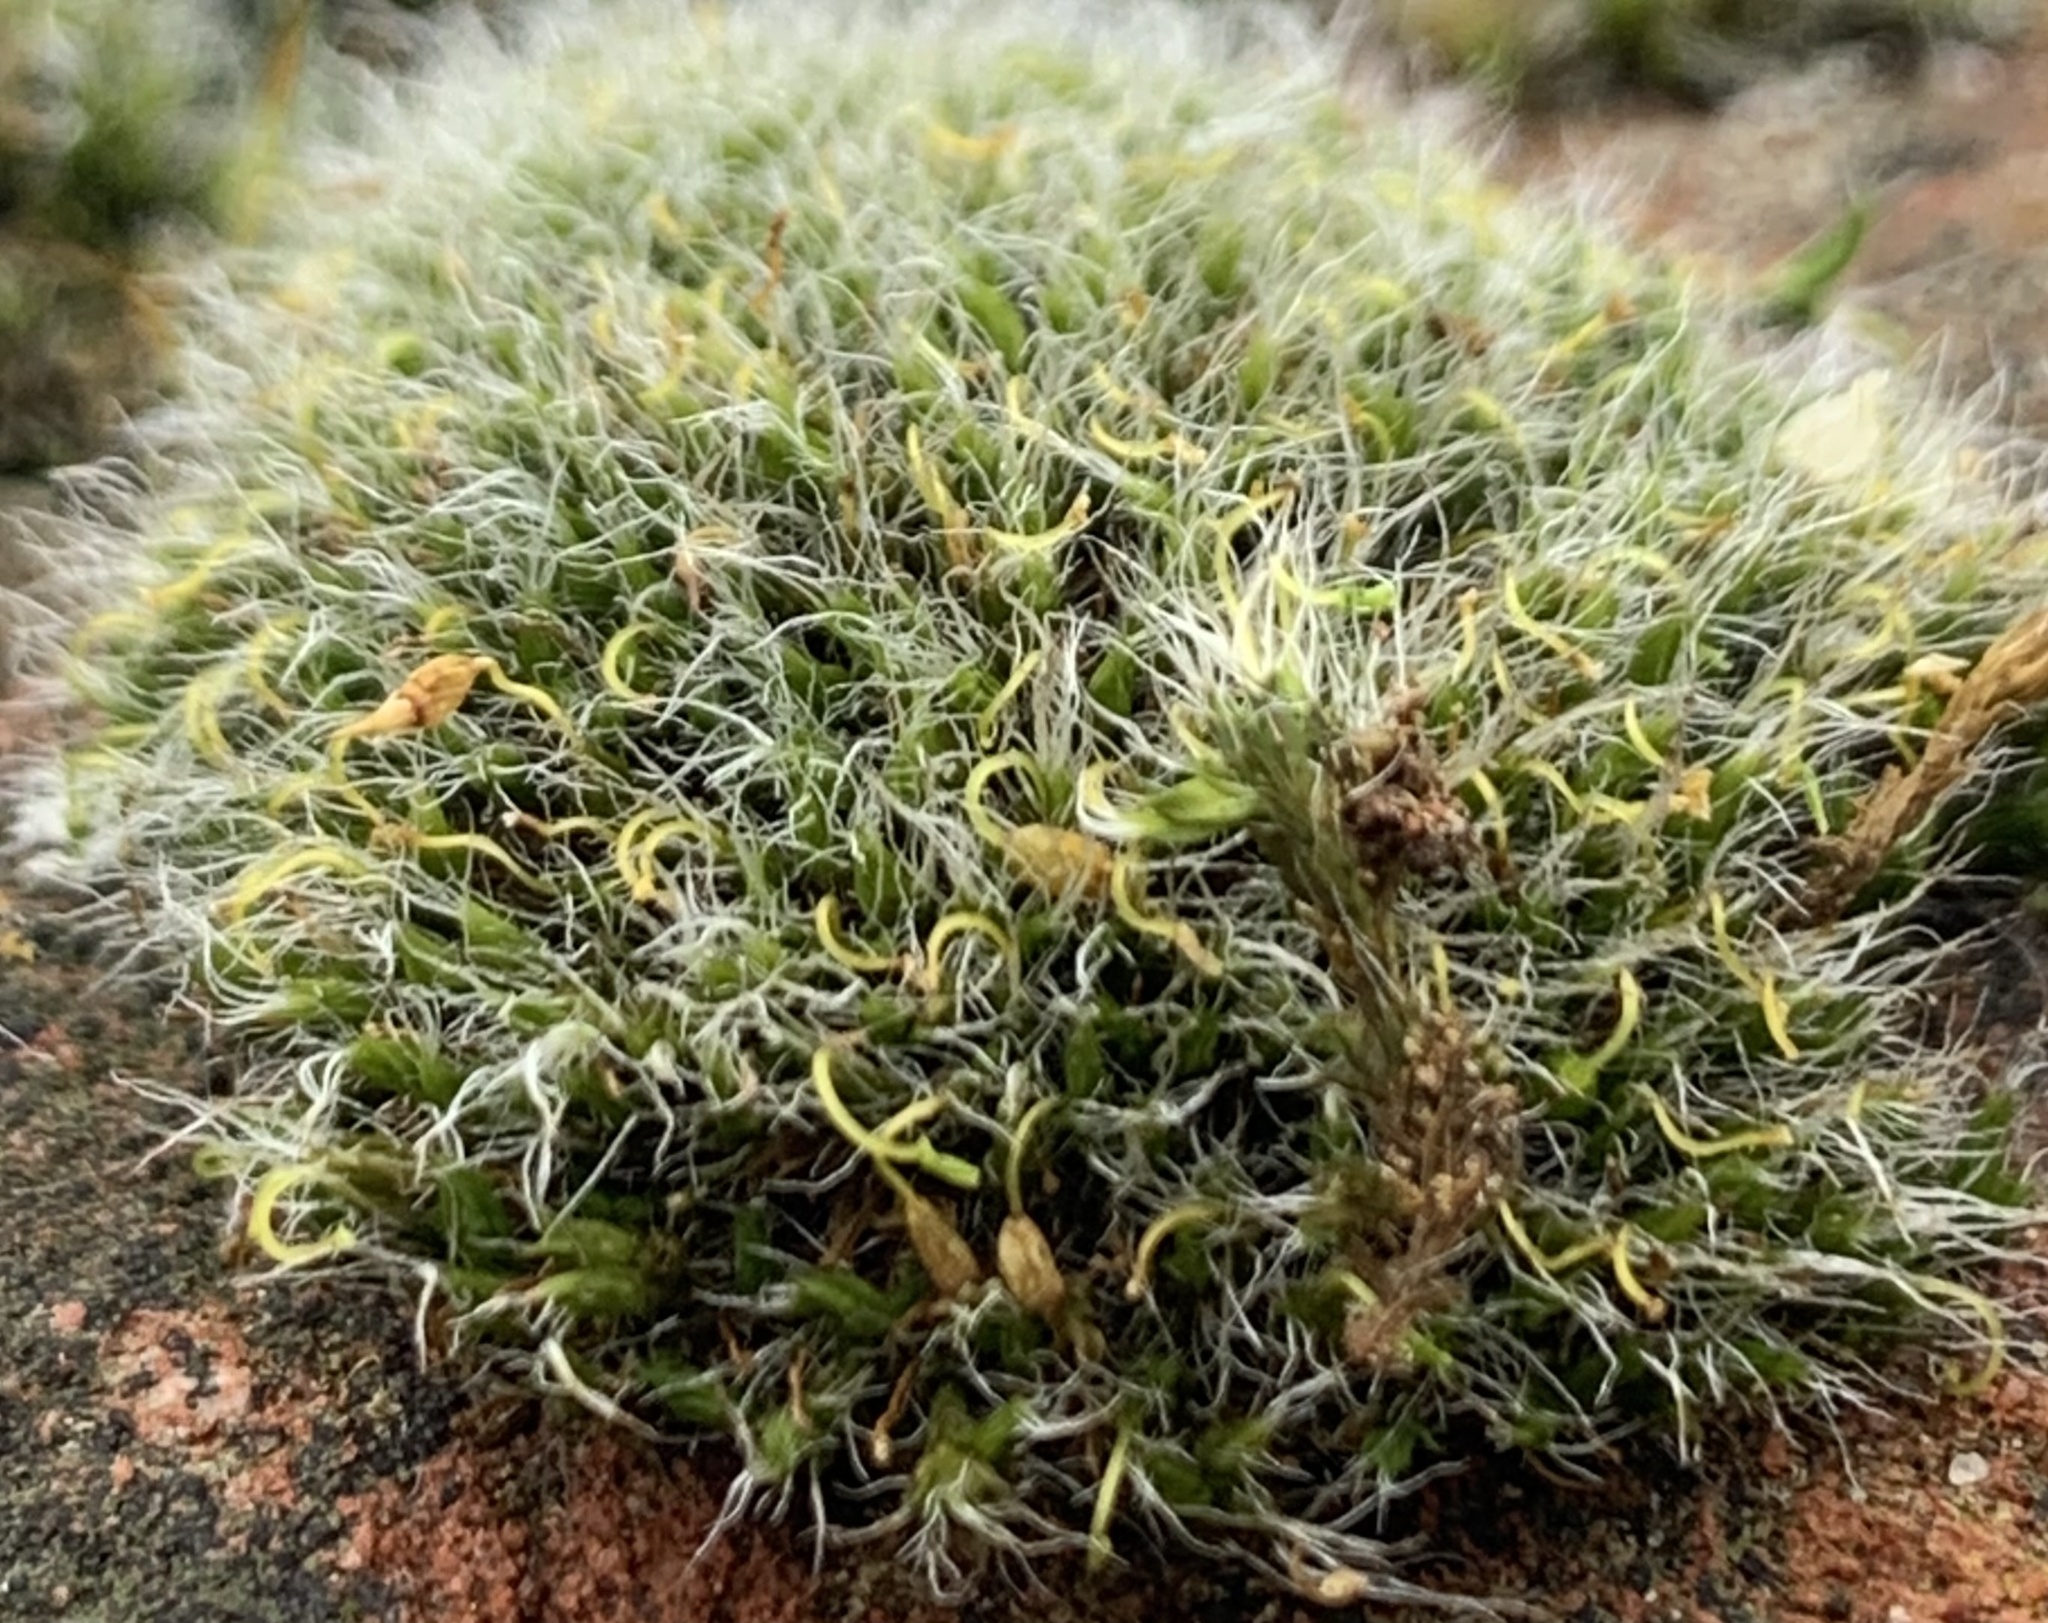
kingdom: Plantae
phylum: Bryophyta
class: Bryopsida
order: Grimmiales
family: Grimmiaceae
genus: Grimmia
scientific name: Grimmia pulvinata
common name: Grey-cushioned grimmia
